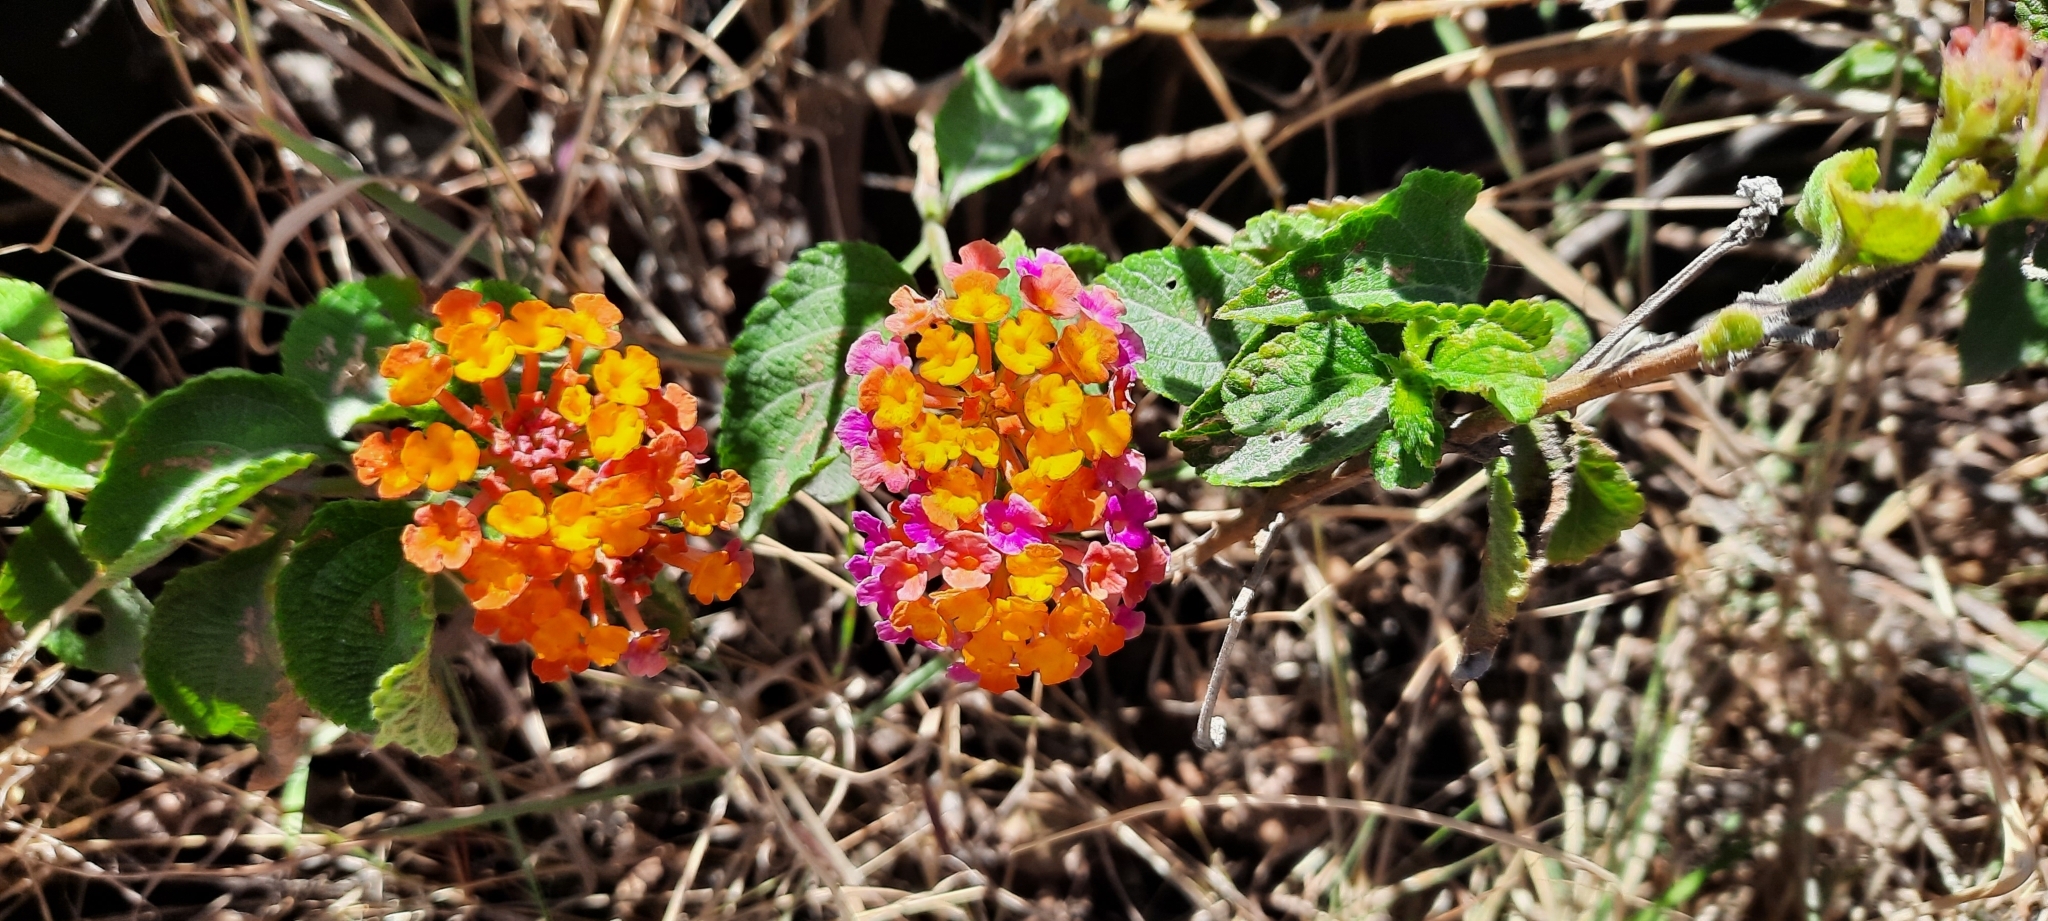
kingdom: Plantae
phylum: Tracheophyta
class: Magnoliopsida
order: Lamiales
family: Verbenaceae
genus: Lantana
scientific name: Lantana camara
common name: Lantana
